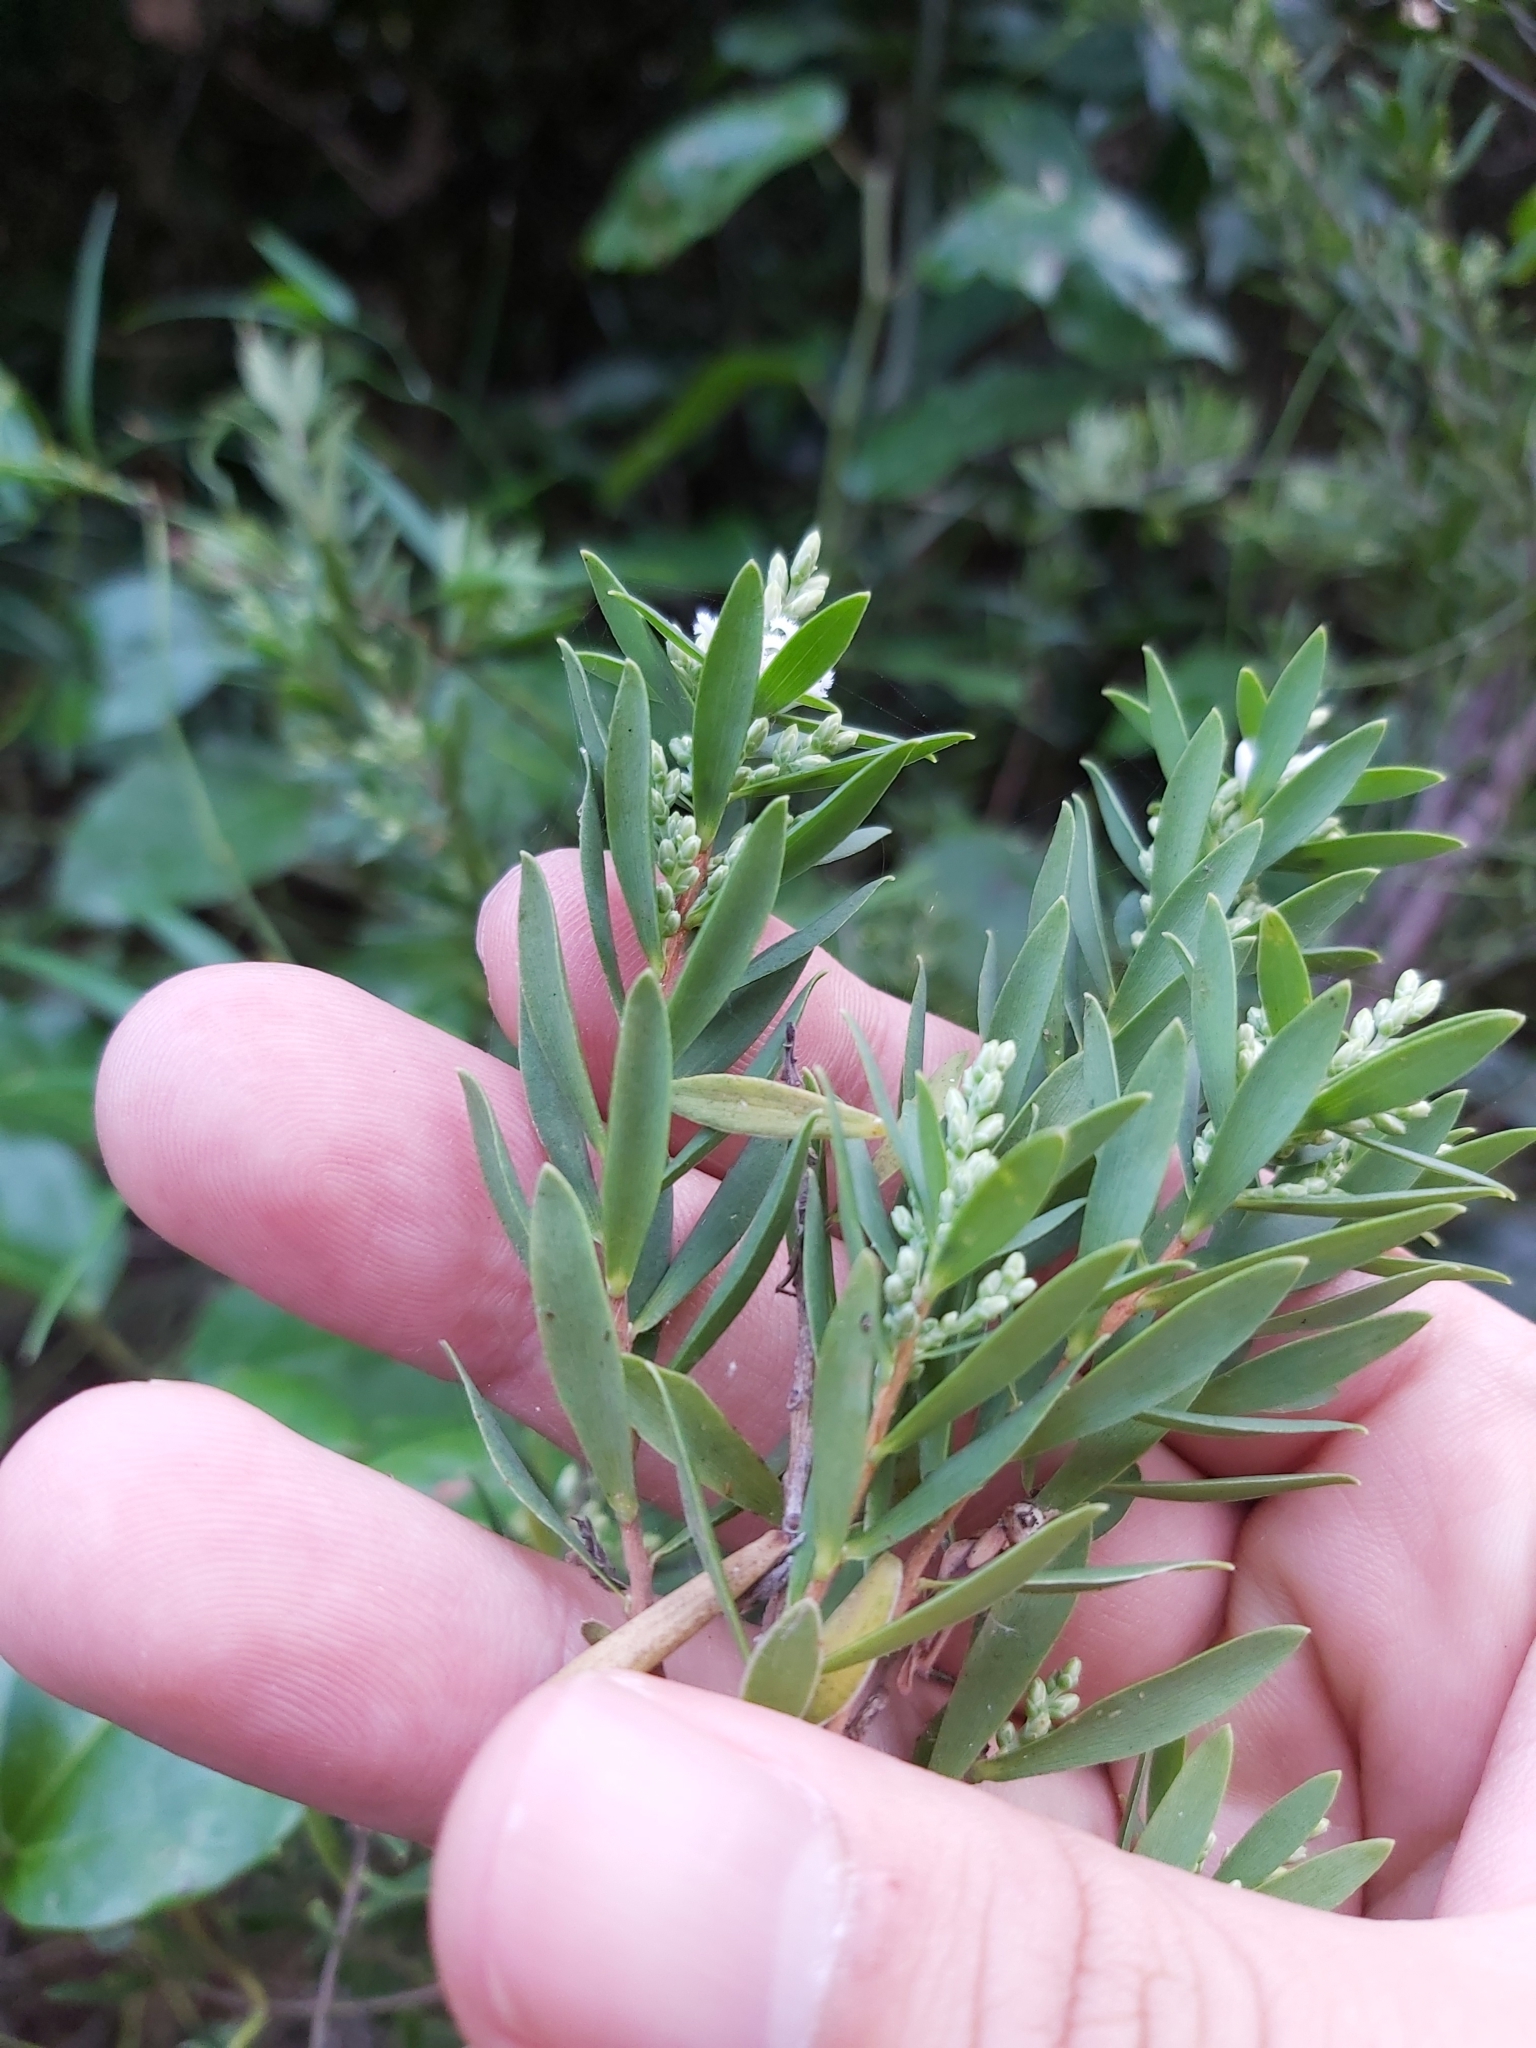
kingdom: Plantae
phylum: Tracheophyta
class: Magnoliopsida
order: Ericales
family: Ericaceae
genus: Monotoca
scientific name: Monotoca elliptica
